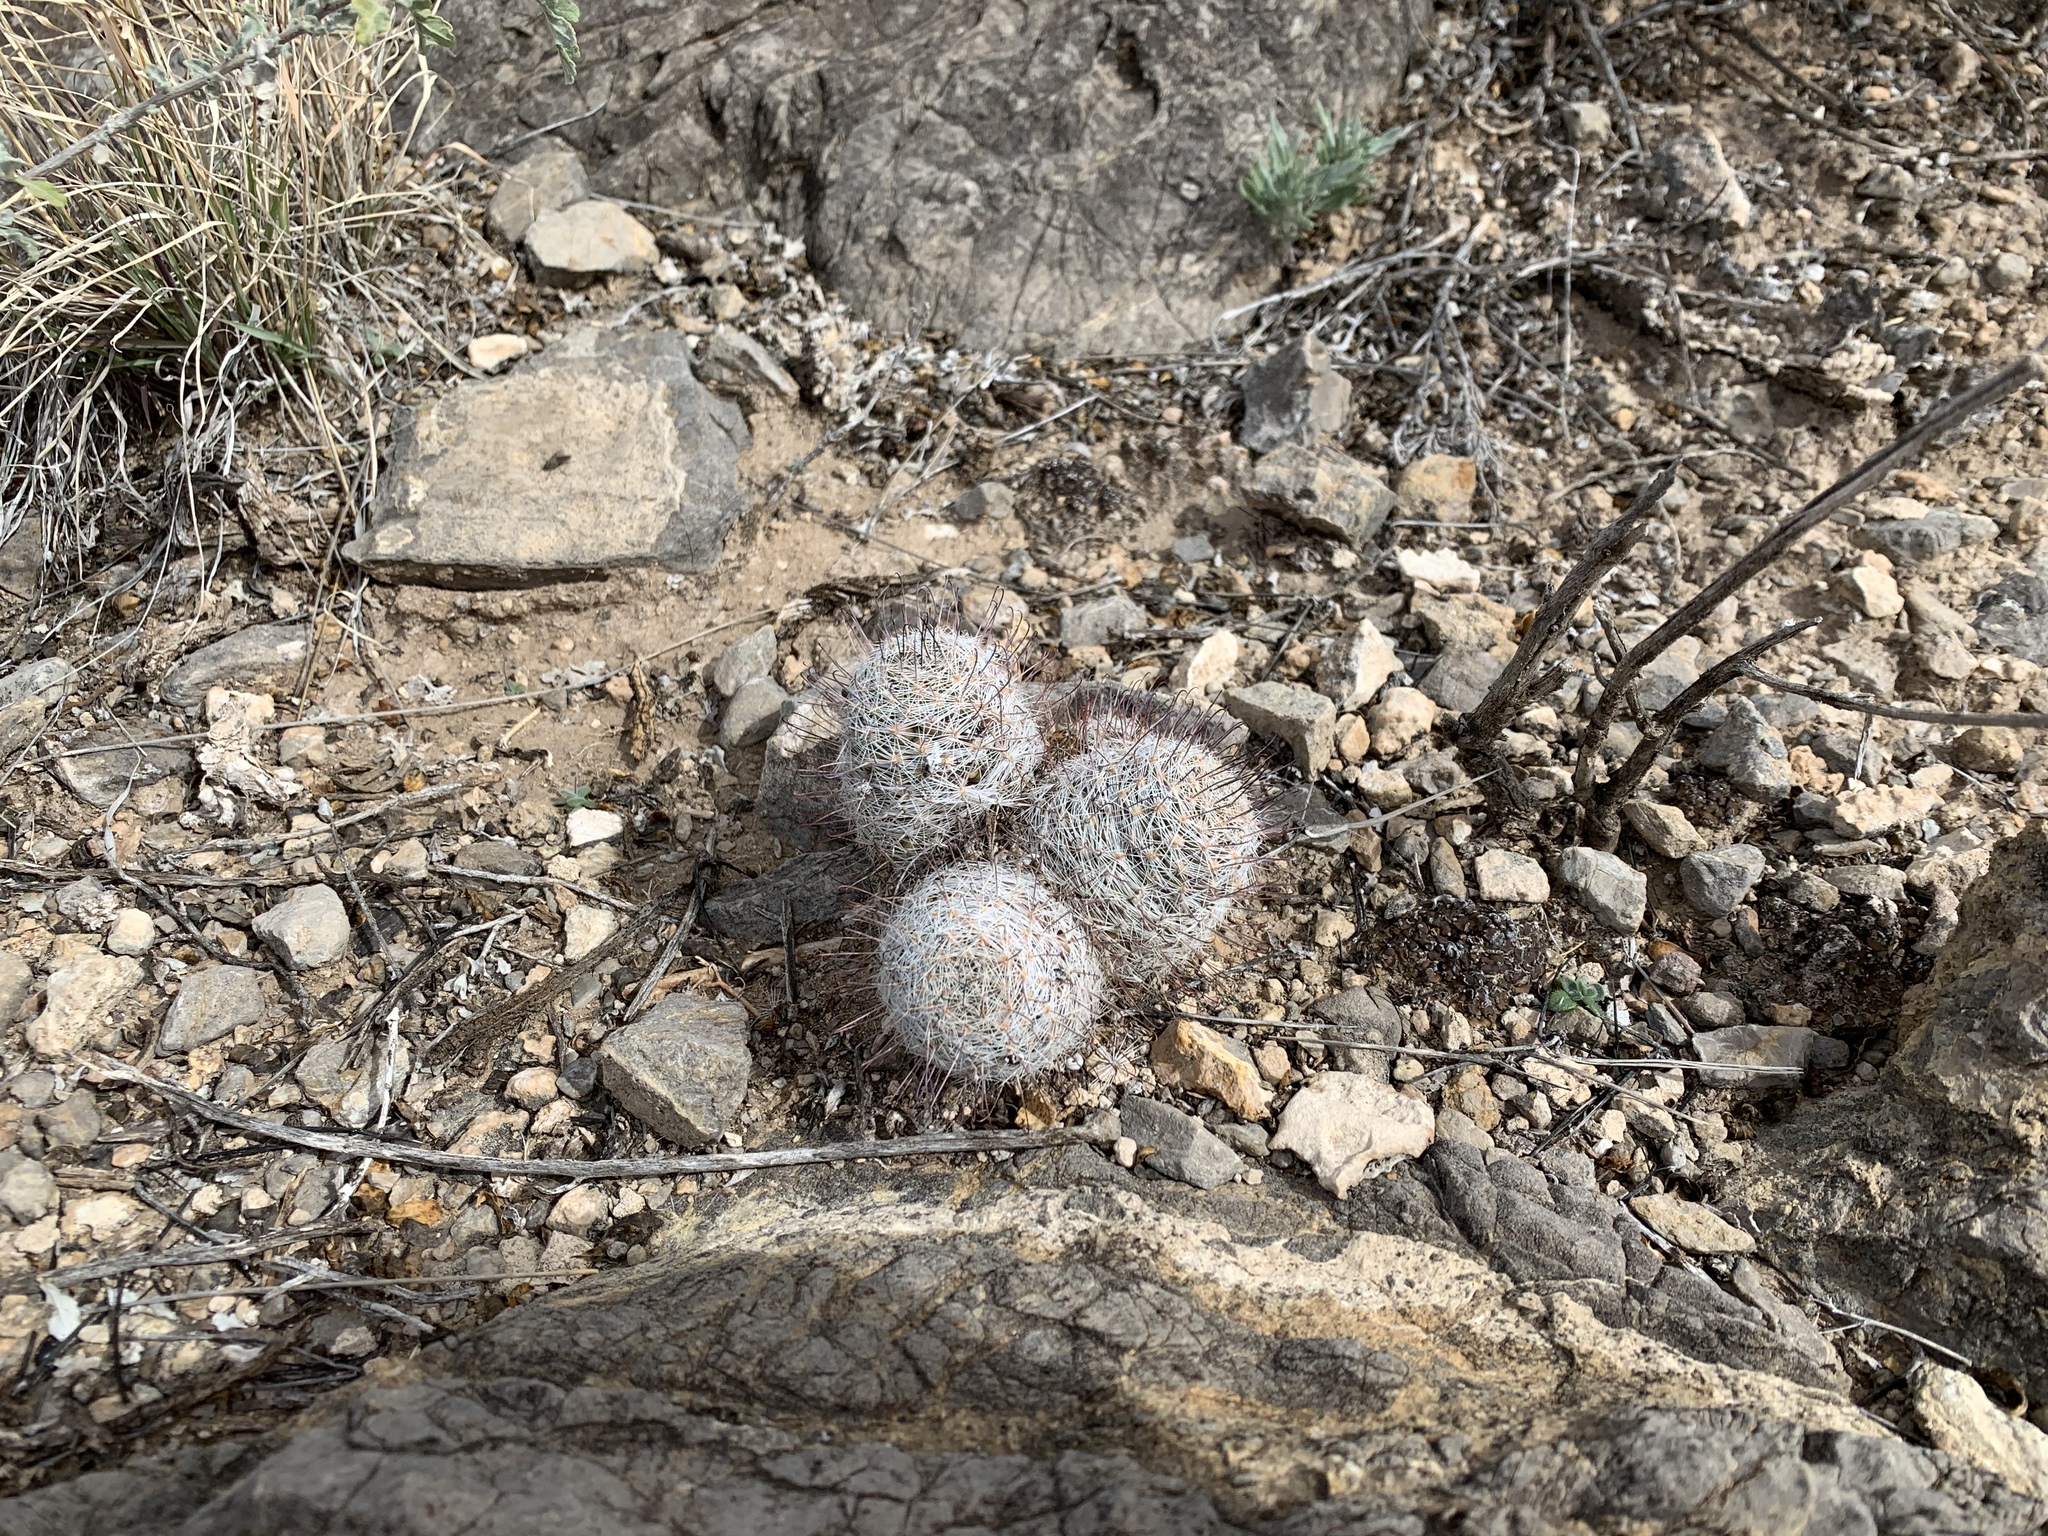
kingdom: Plantae
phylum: Tracheophyta
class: Magnoliopsida
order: Caryophyllales
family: Cactaceae
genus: Cochemiea
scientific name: Cochemiea grahamii
